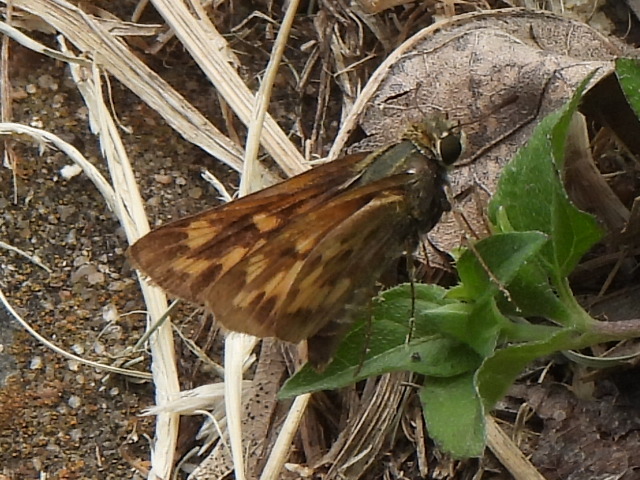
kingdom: Animalia
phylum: Arthropoda
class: Insecta
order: Lepidoptera
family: Hesperiidae
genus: Hylephila
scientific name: Hylephila phyleus
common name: Fiery skipper
